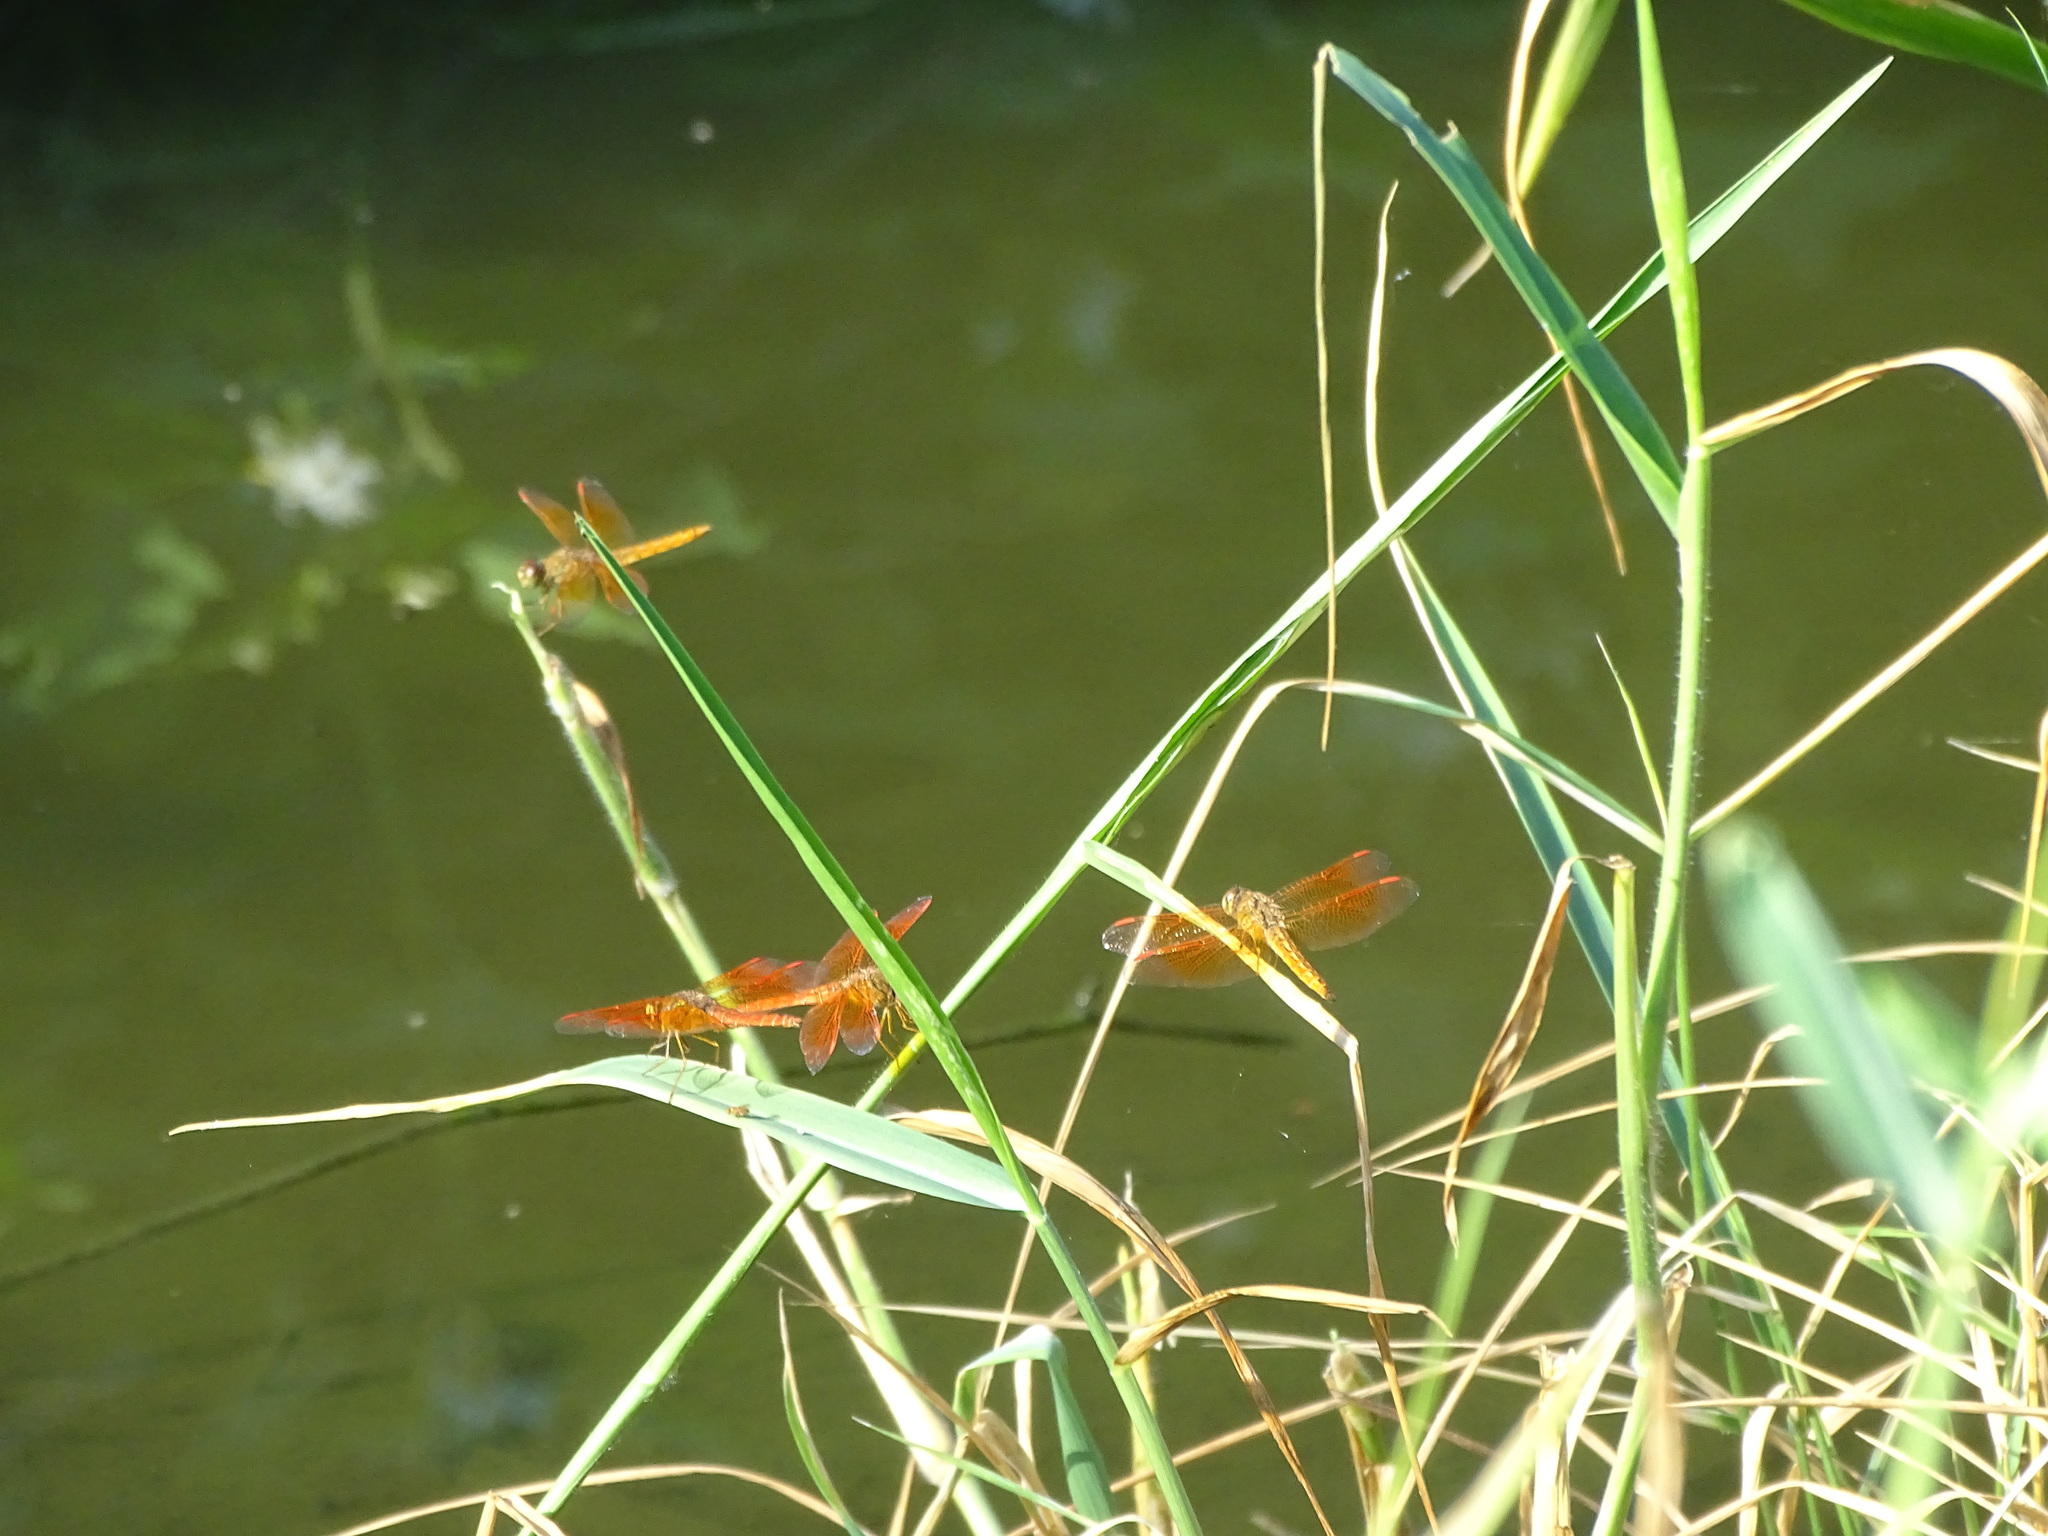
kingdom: Animalia
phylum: Arthropoda
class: Insecta
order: Odonata
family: Libellulidae
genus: Brachythemis
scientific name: Brachythemis contaminata
